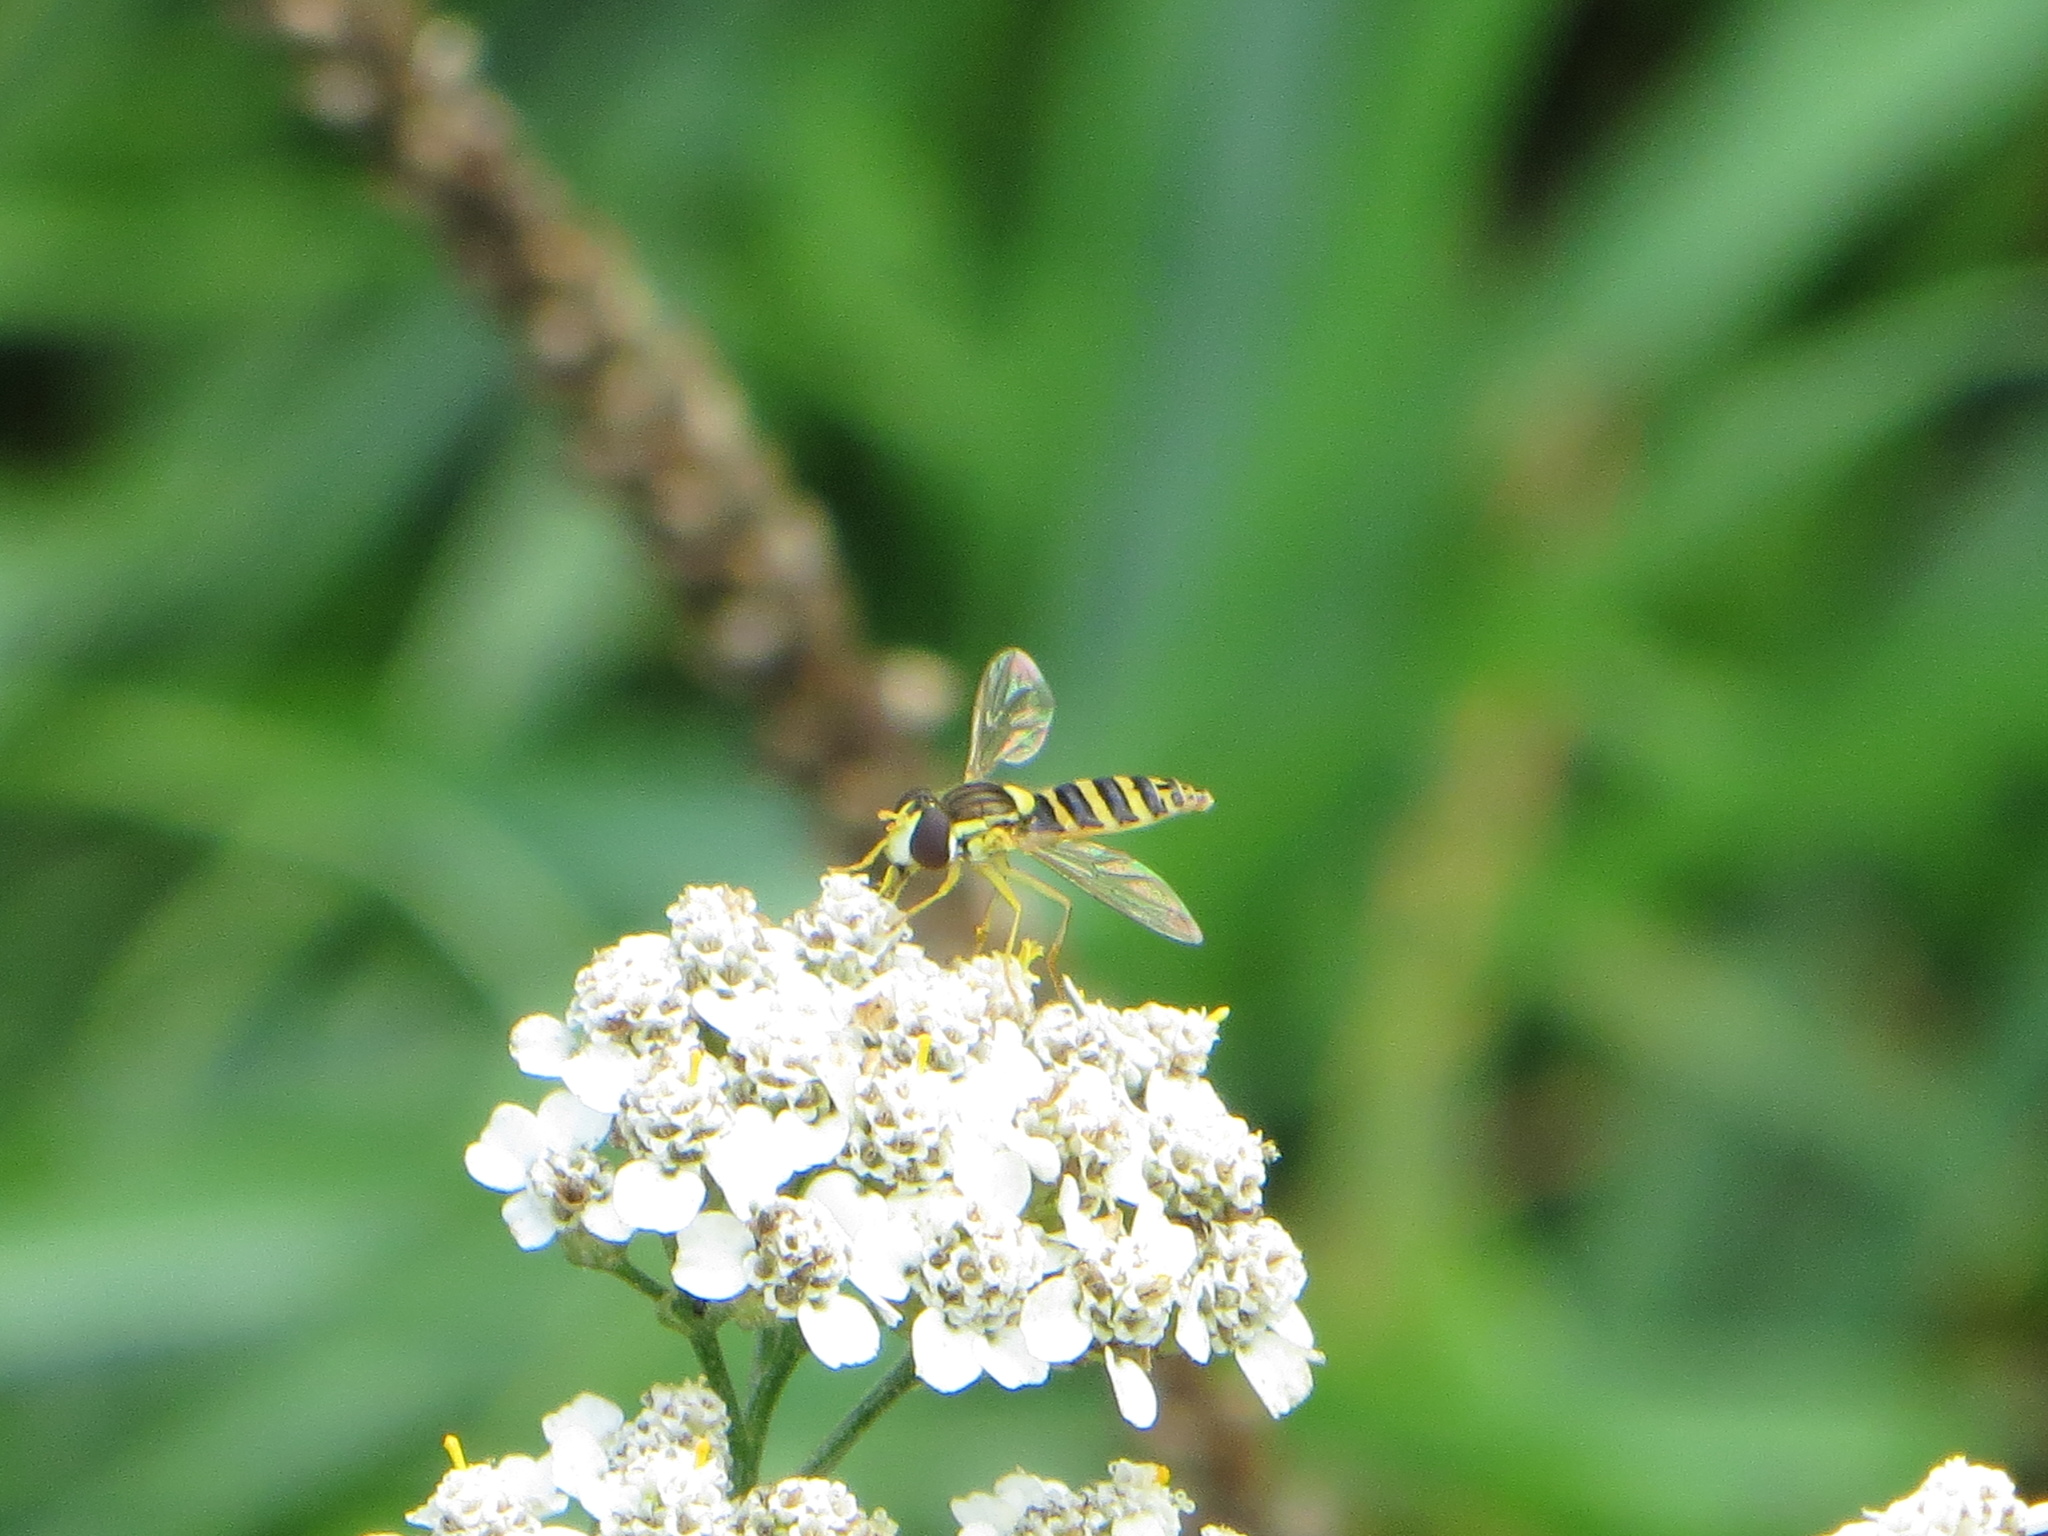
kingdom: Animalia
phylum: Arthropoda
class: Insecta
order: Diptera
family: Syrphidae
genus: Sphaerophoria
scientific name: Sphaerophoria
